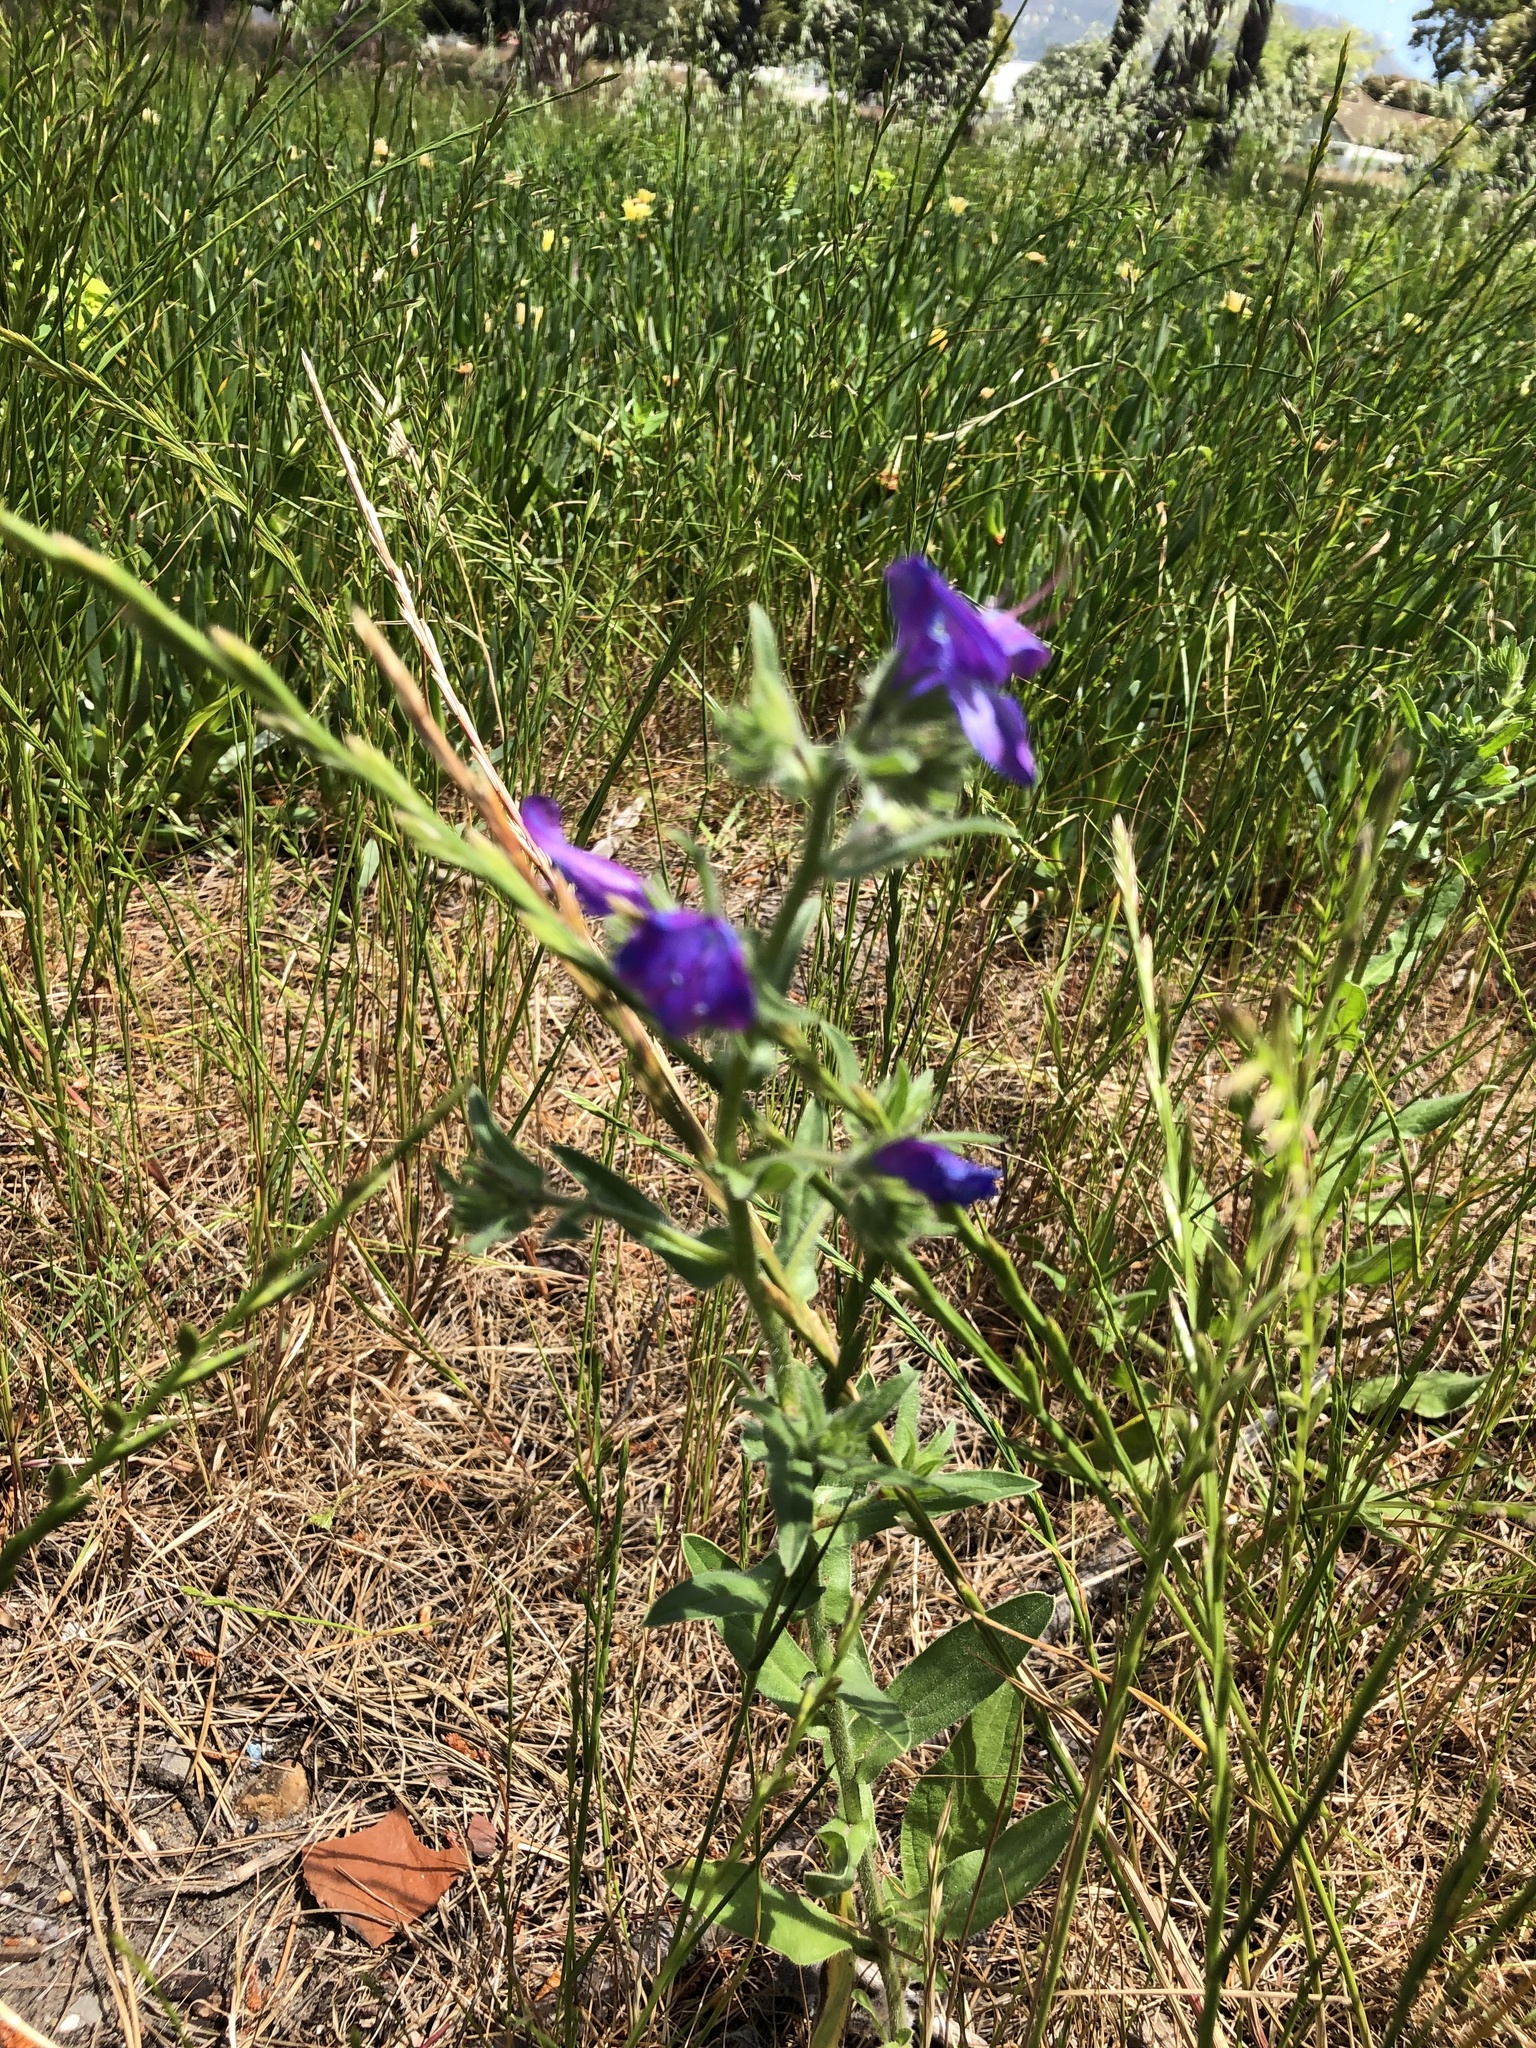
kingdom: Plantae
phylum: Tracheophyta
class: Magnoliopsida
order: Boraginales
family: Boraginaceae
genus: Echium
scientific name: Echium plantagineum
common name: Purple viper's-bugloss
